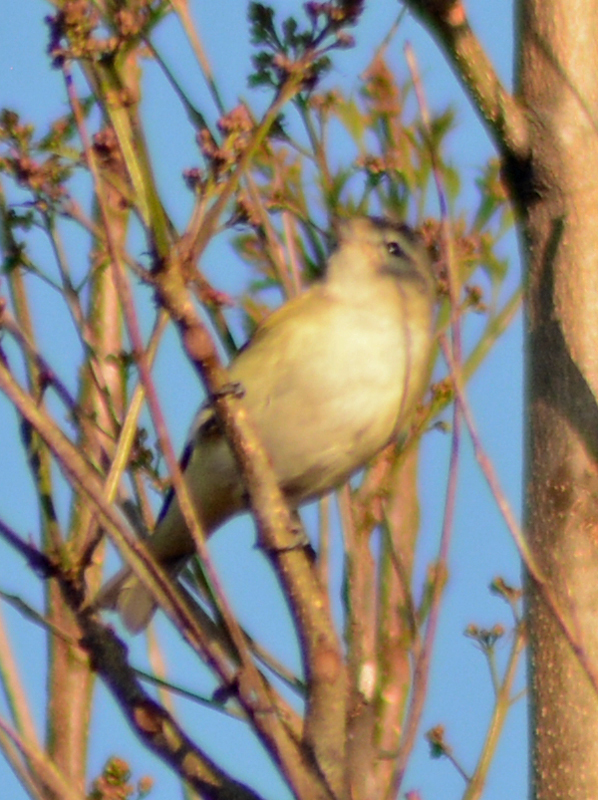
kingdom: Animalia
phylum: Chordata
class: Aves
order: Passeriformes
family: Vireonidae
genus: Vireo
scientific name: Vireo gilvus
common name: Warbling vireo
